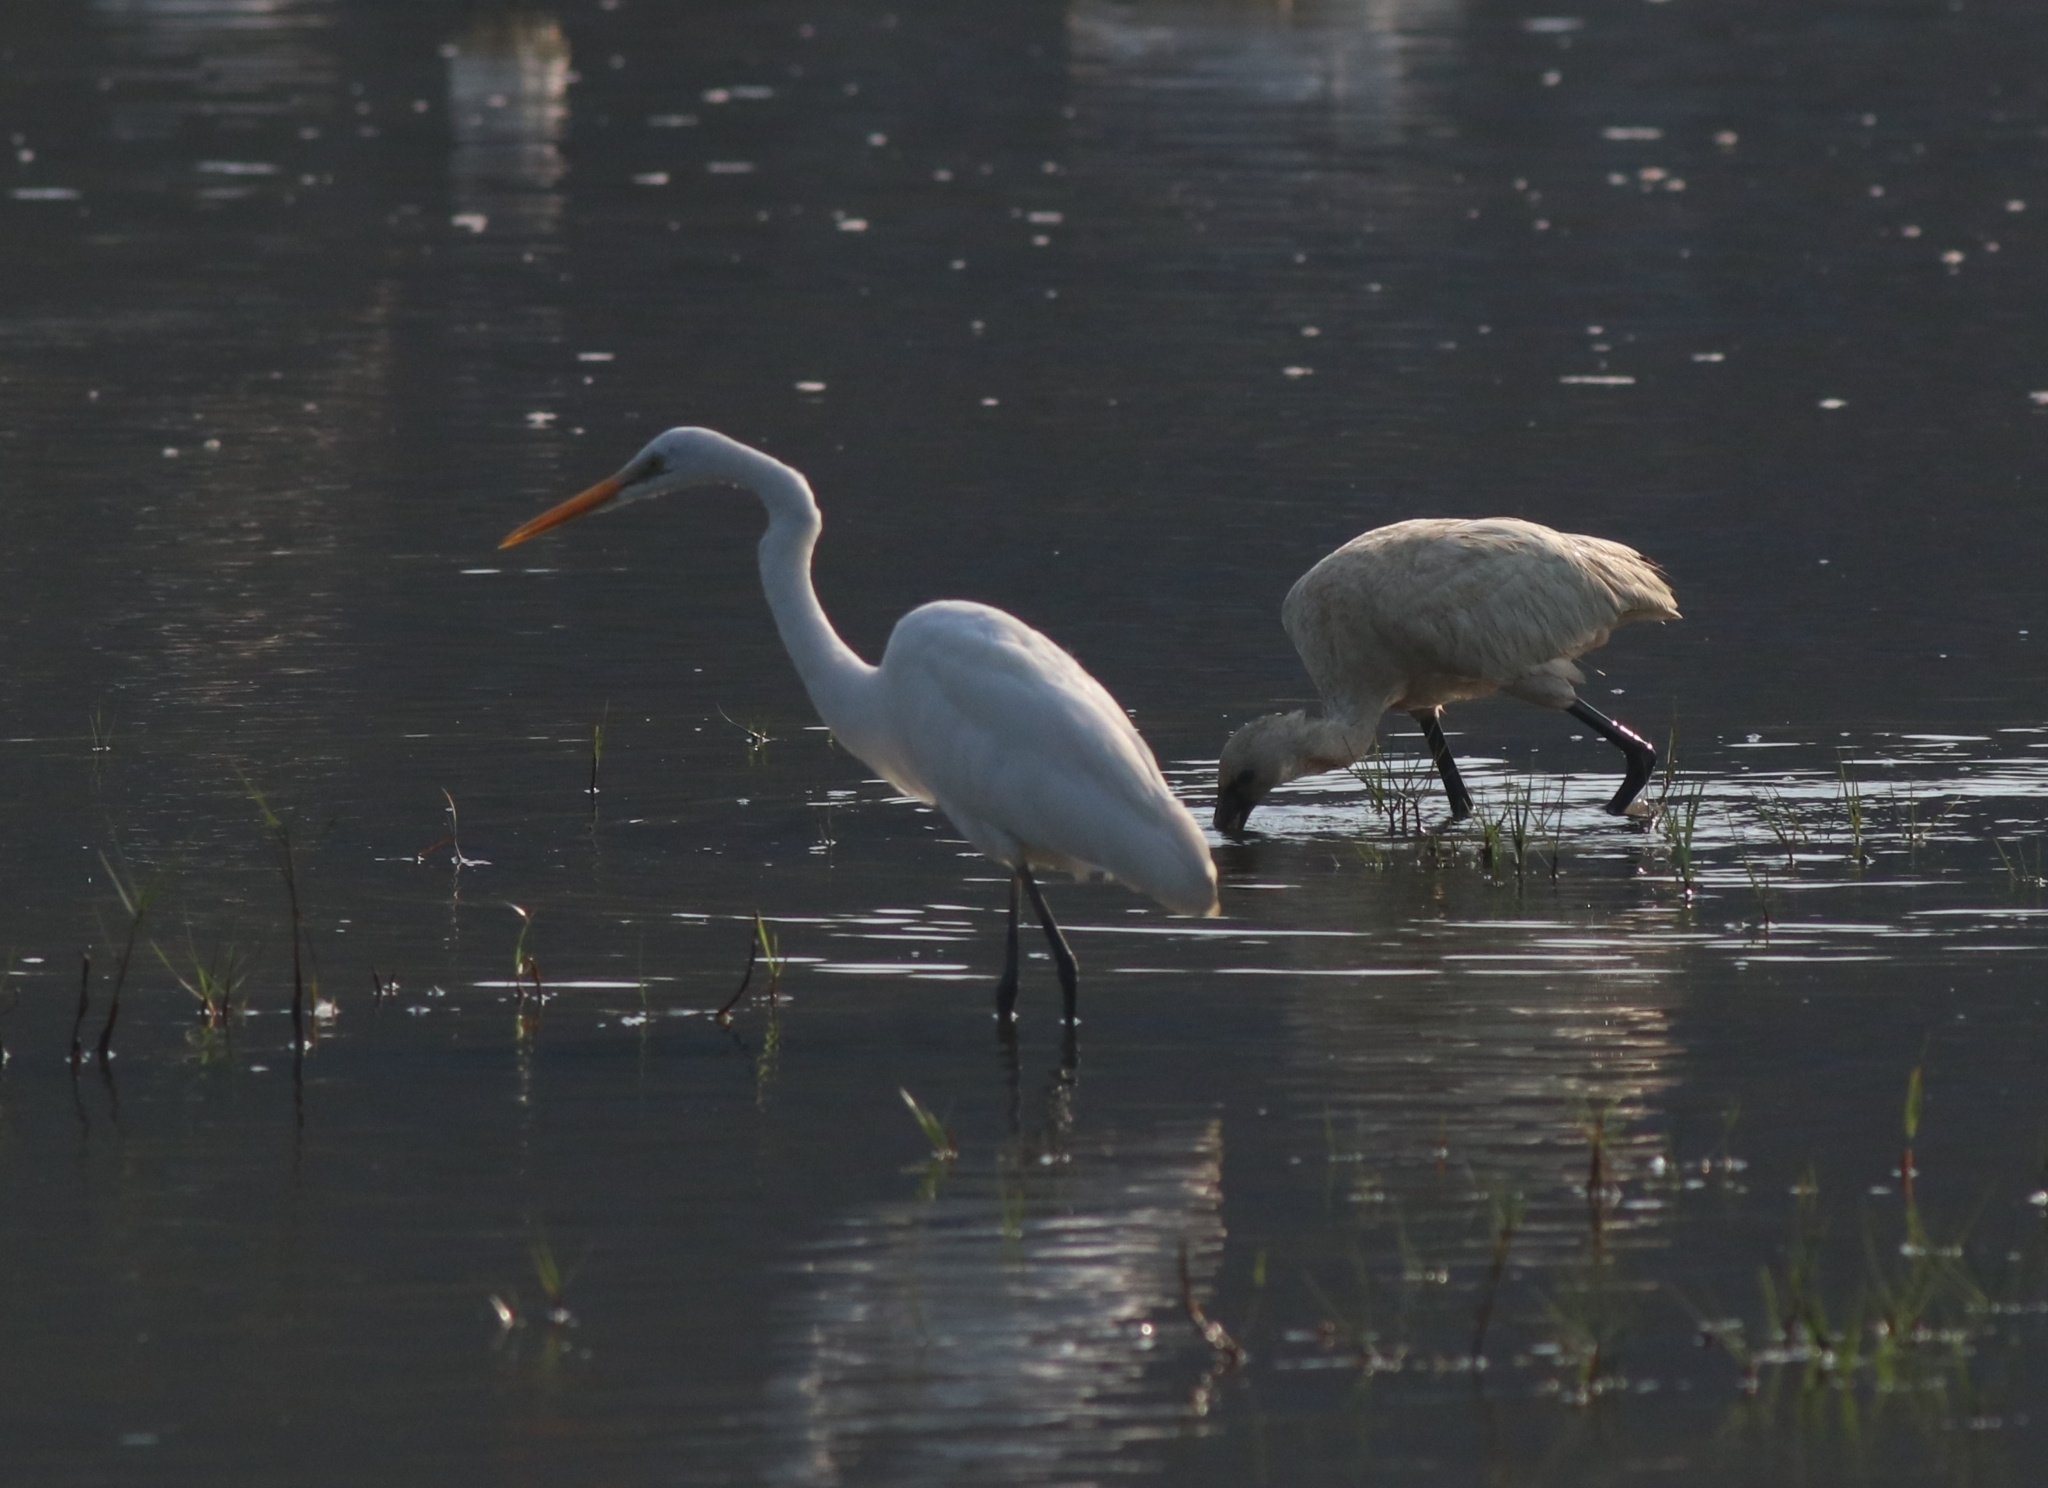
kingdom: Animalia
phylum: Chordata
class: Aves
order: Pelecaniformes
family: Ardeidae
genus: Ardea
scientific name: Ardea alba
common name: Great egret
